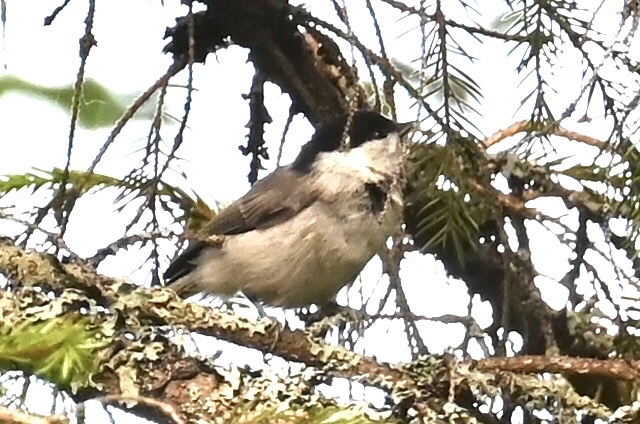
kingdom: Animalia
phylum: Chordata
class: Aves
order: Passeriformes
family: Paridae
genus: Poecile
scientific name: Poecile montanus
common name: Willow tit
